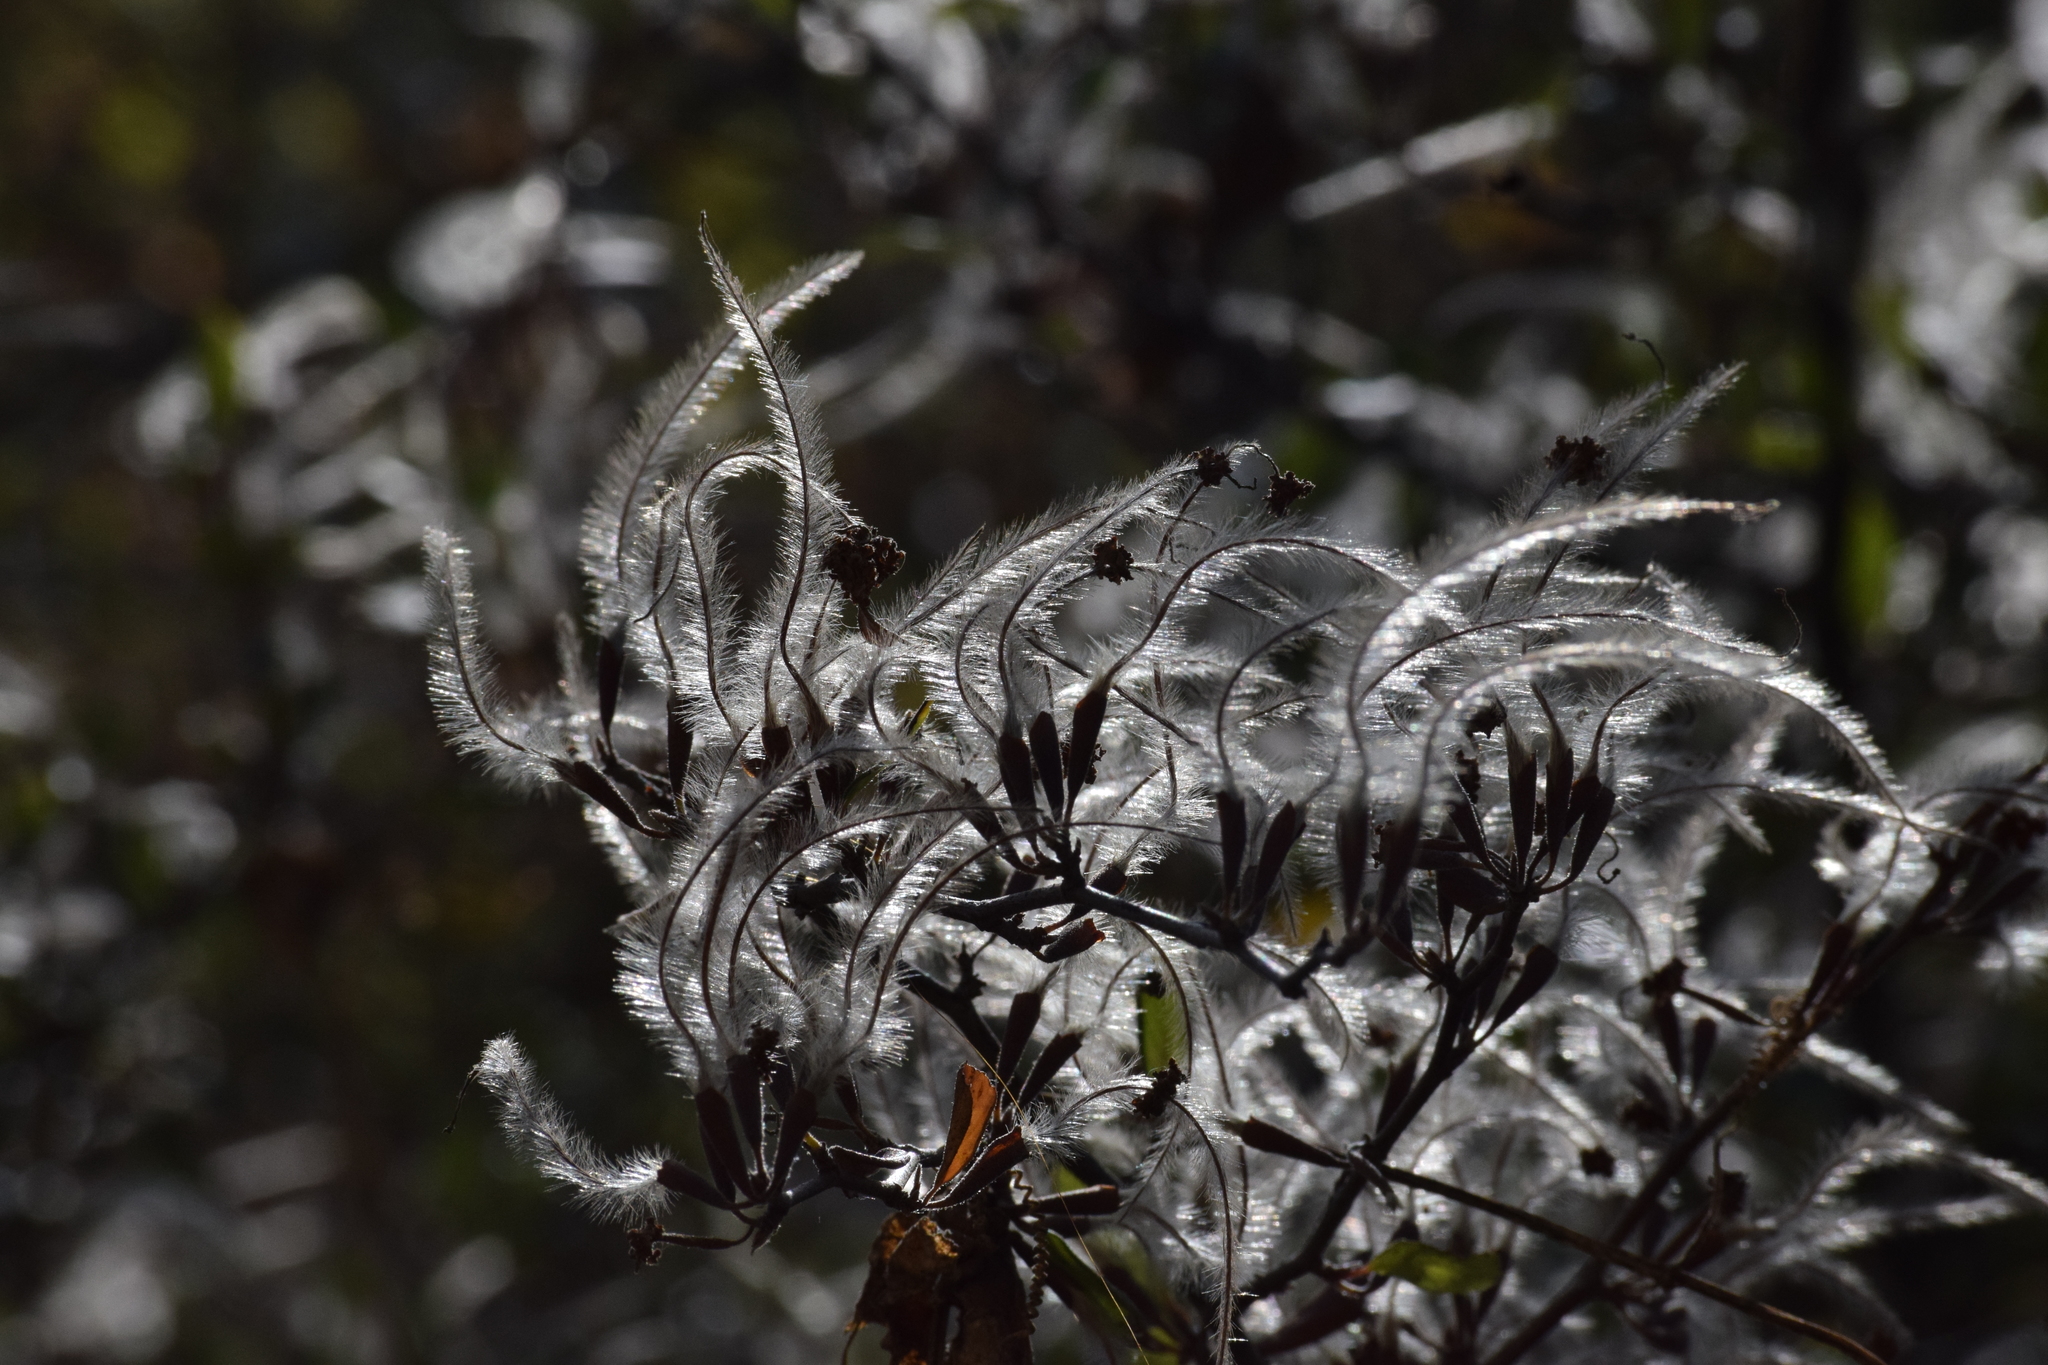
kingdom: Plantae
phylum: Tracheophyta
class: Magnoliopsida
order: Rosales
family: Rosaceae
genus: Cercocarpus
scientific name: Cercocarpus betuloides
